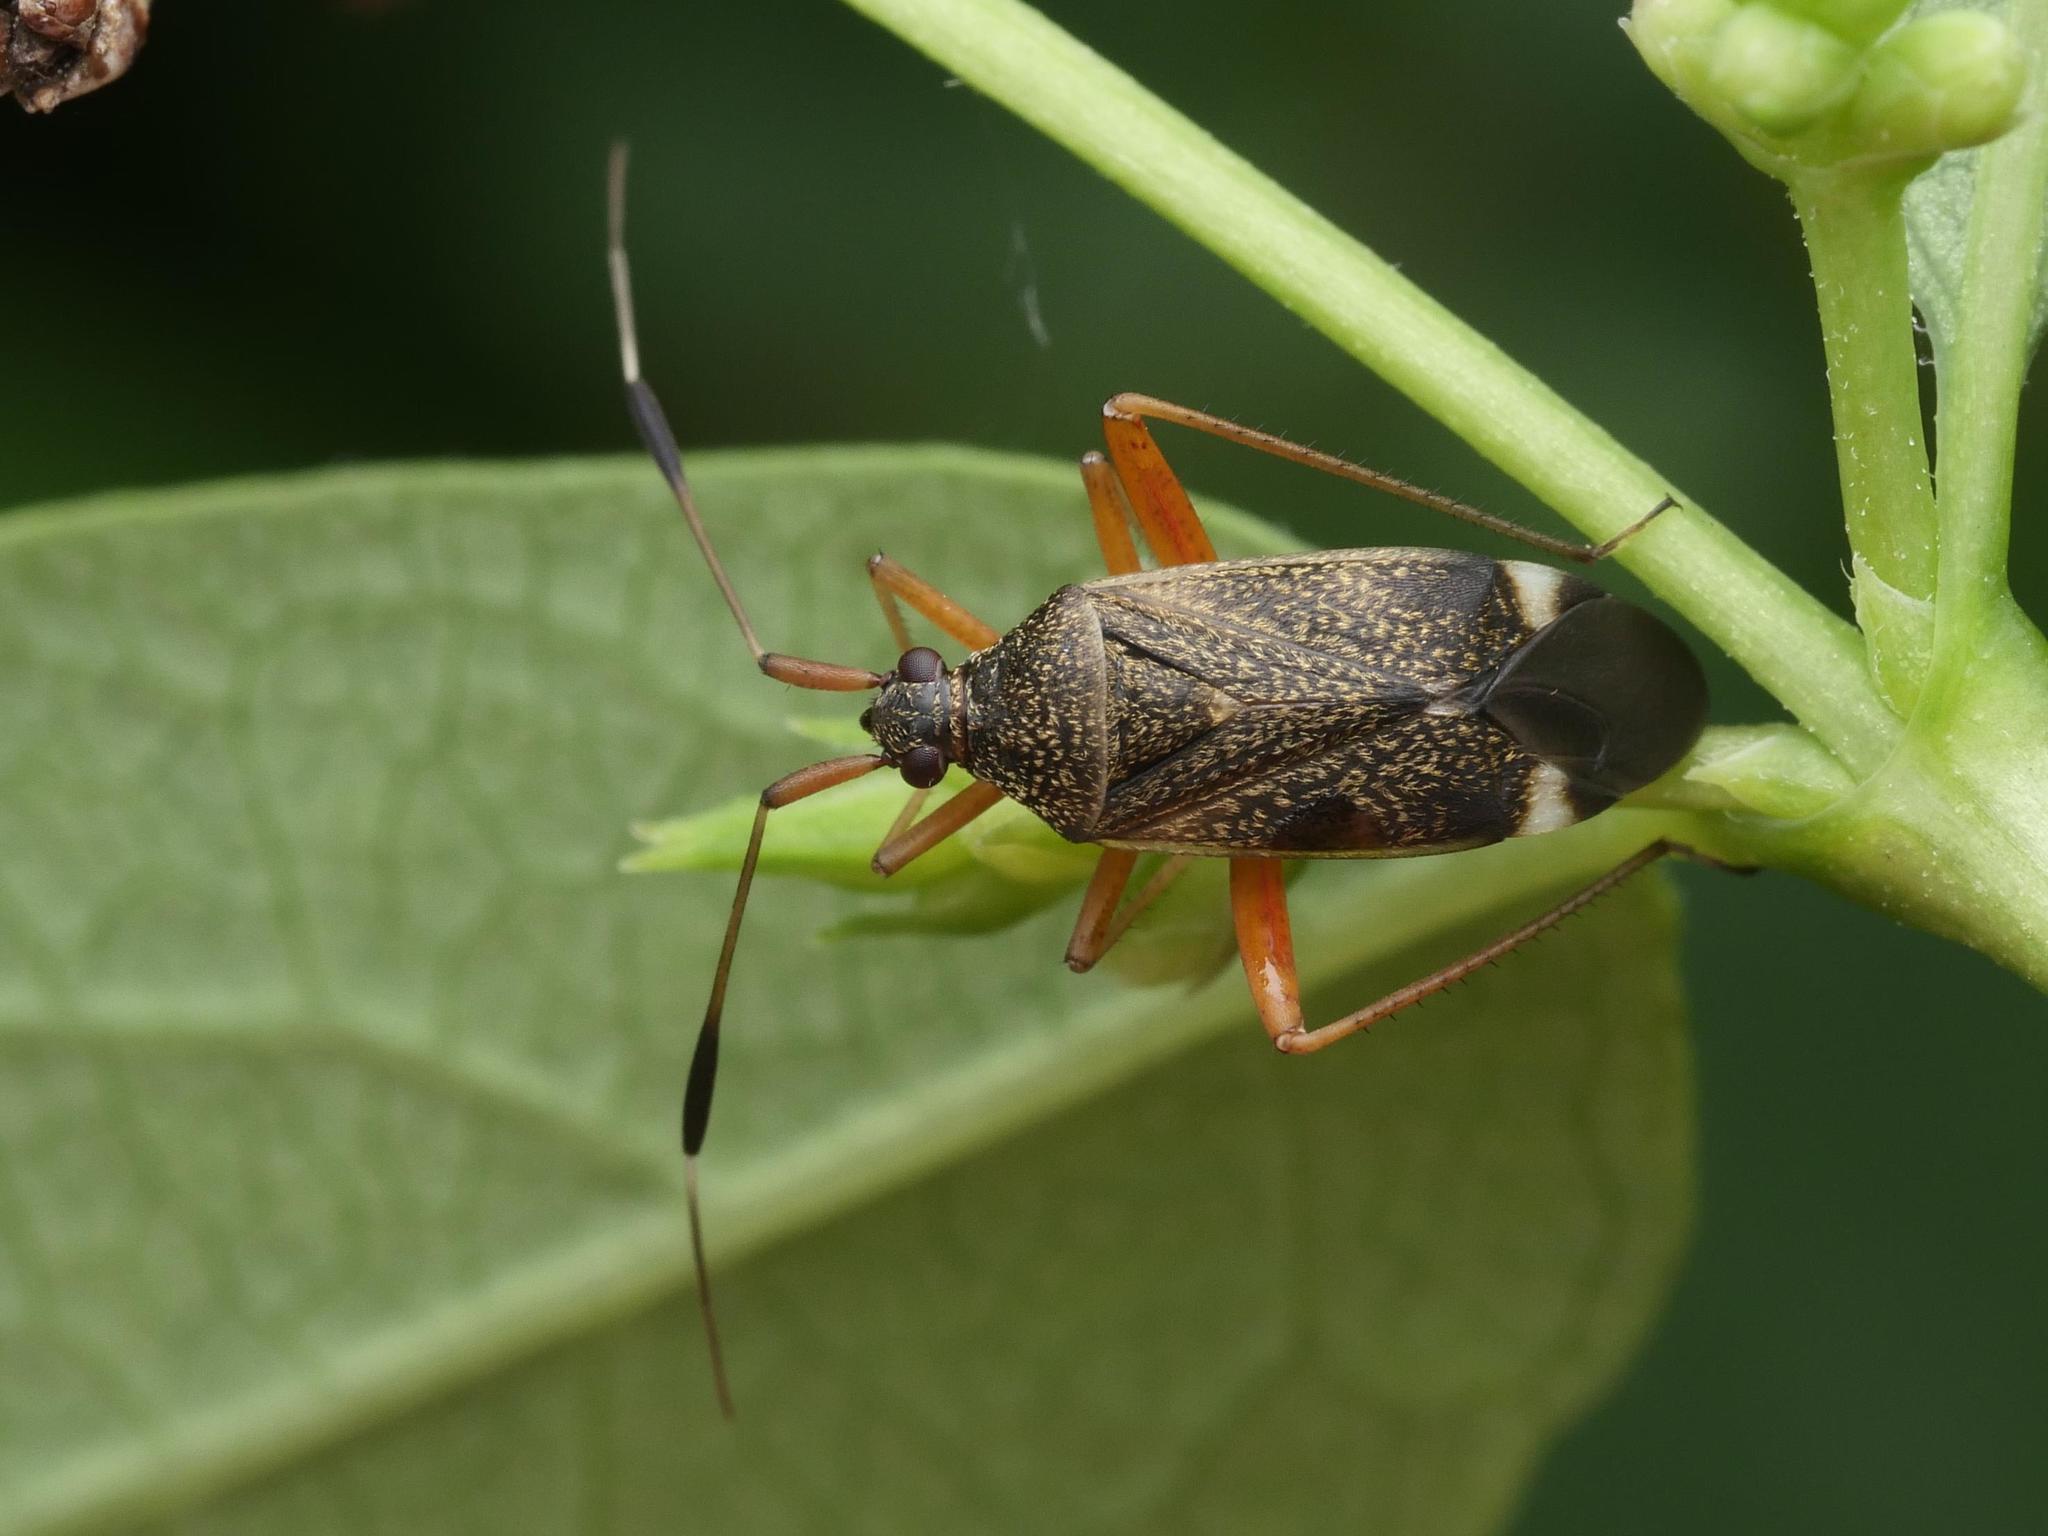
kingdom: Animalia
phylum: Arthropoda
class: Insecta
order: Hemiptera
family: Miridae
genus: Closterotomus
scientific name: Closterotomus biclavatus
